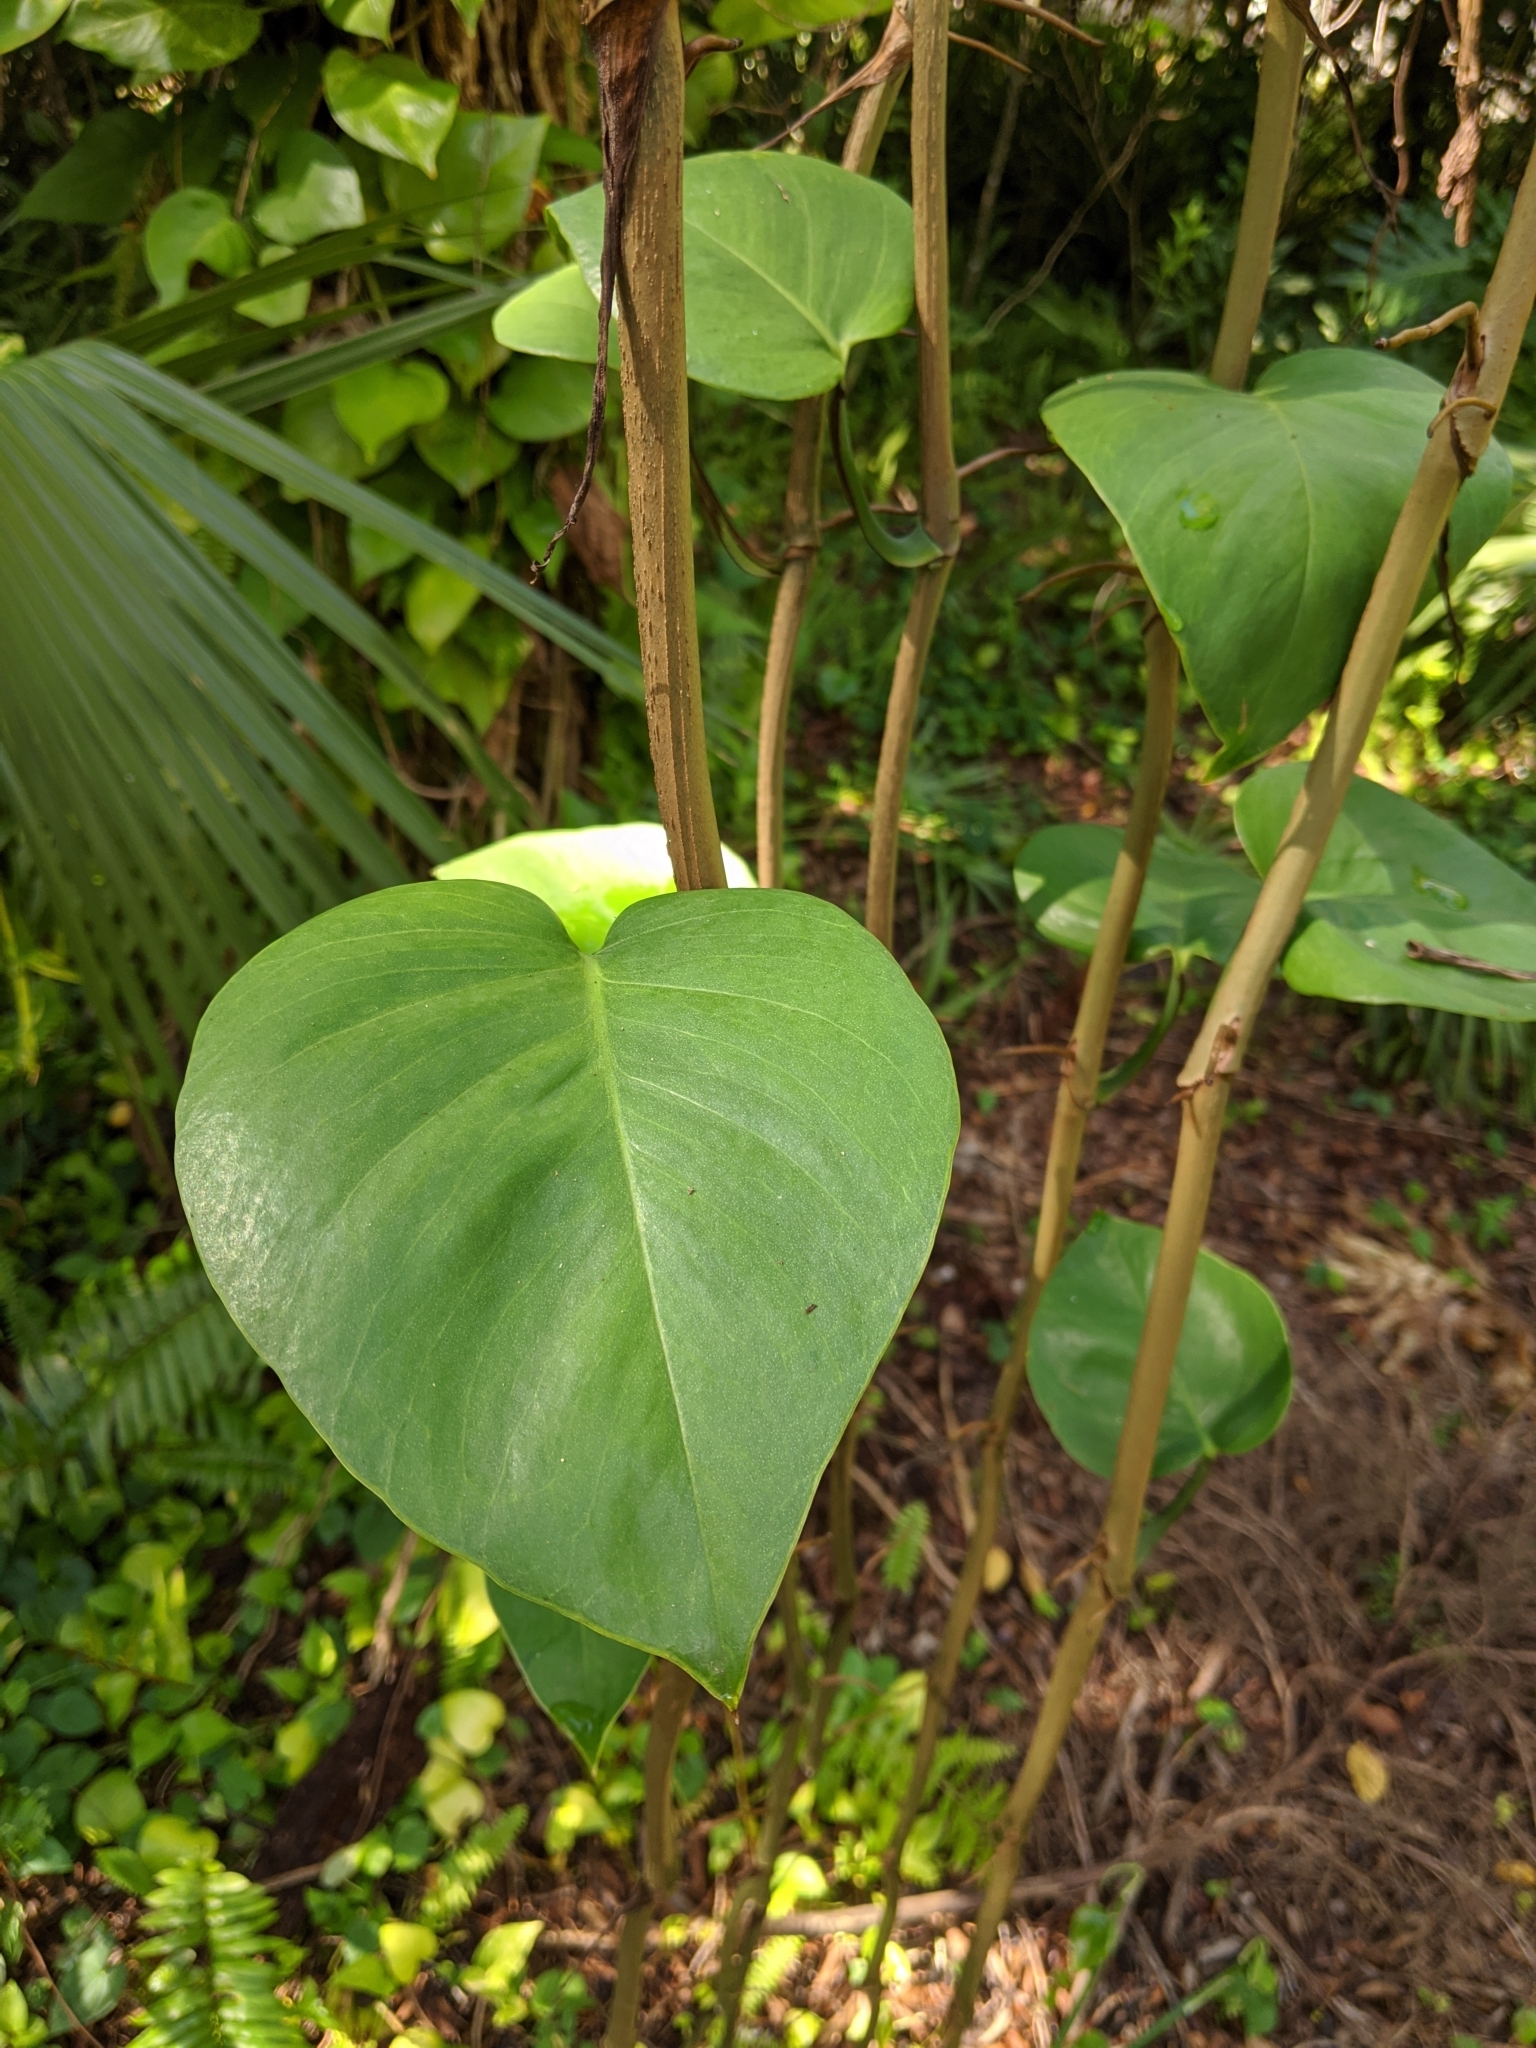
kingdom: Plantae
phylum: Tracheophyta
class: Liliopsida
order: Alismatales
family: Araceae
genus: Epipremnum
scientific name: Epipremnum aureum
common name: Golden hunter's-robe
